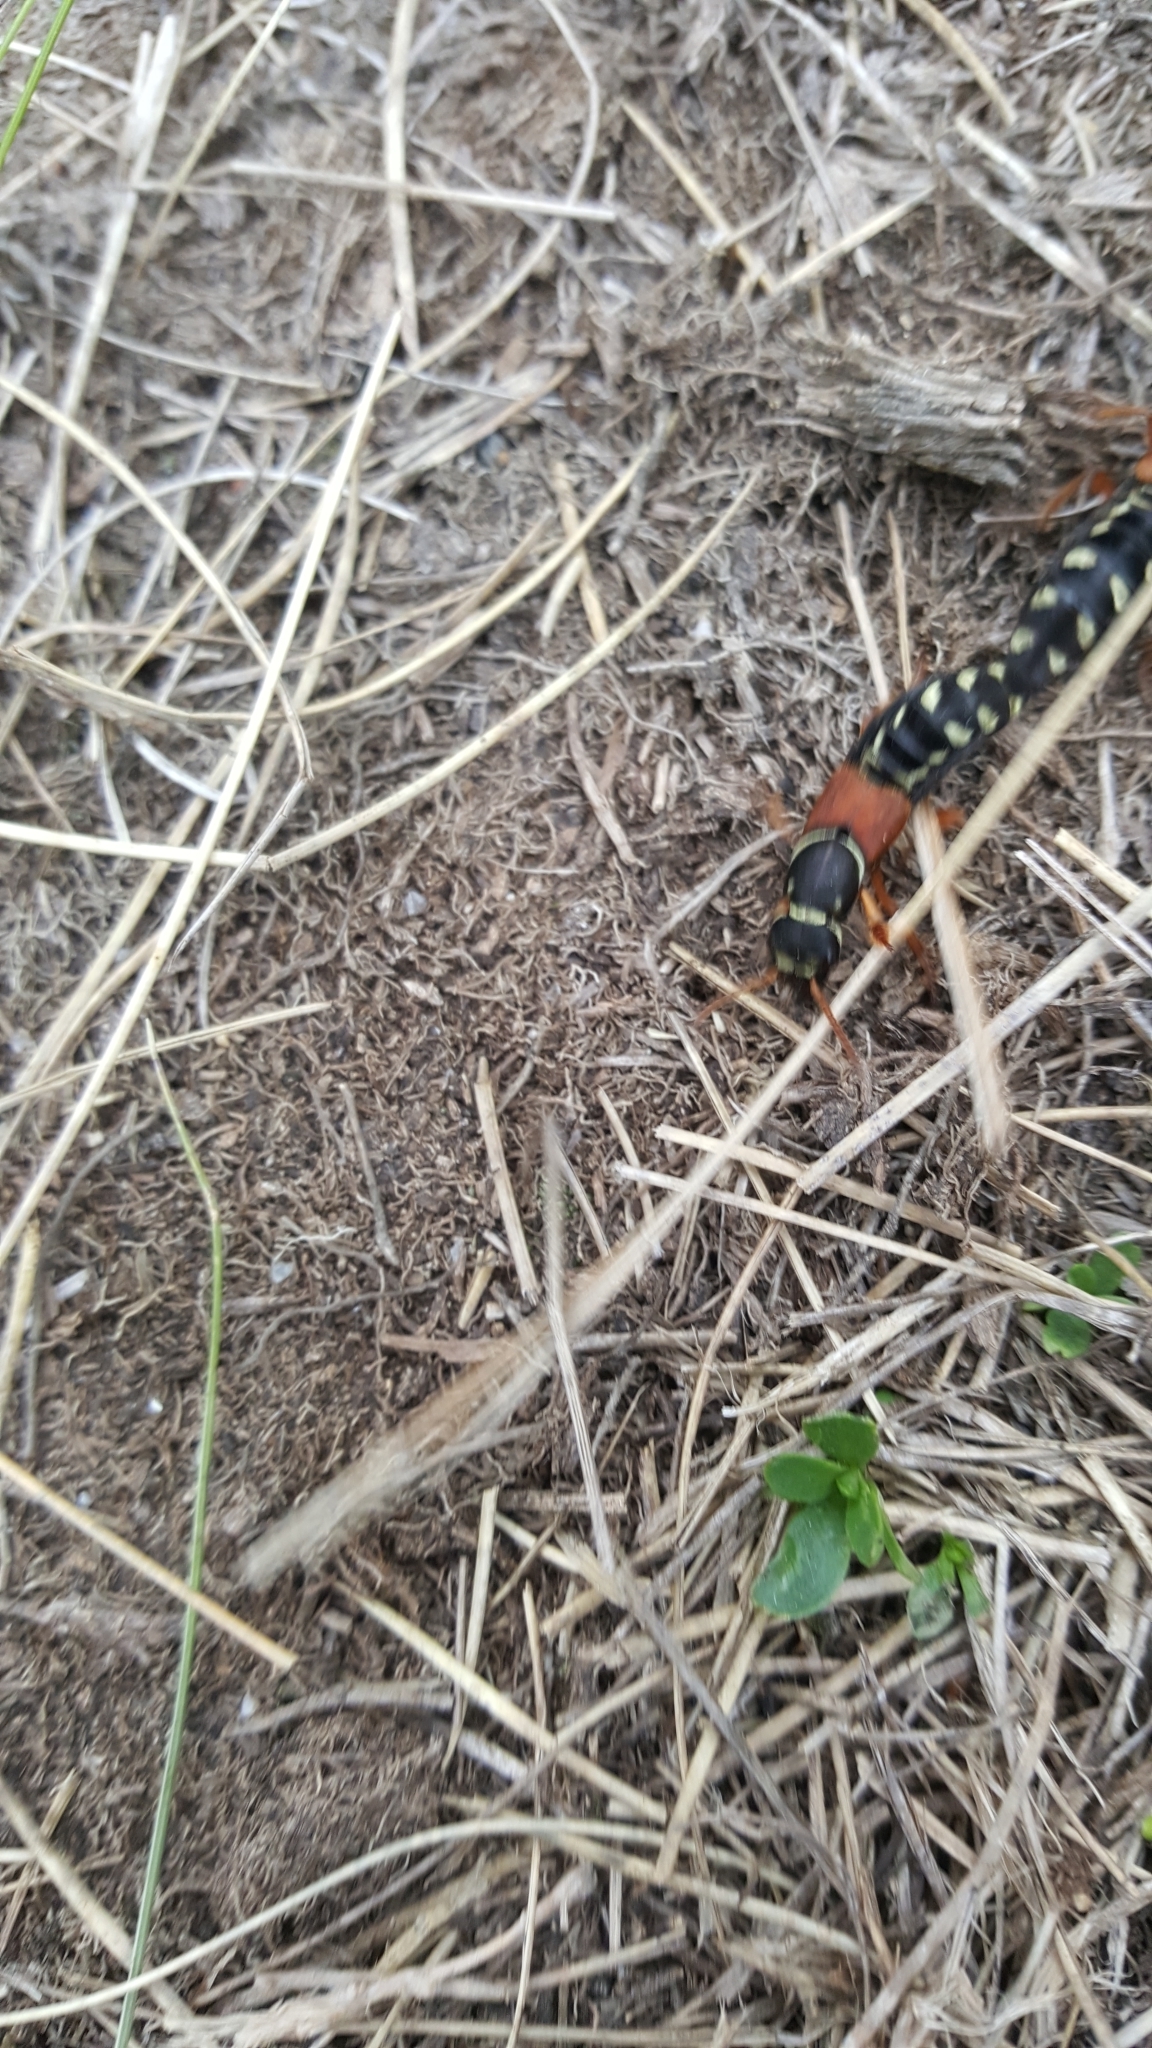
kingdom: Animalia
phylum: Arthropoda
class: Insecta
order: Coleoptera
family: Staphylinidae
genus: Staphylinus
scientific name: Staphylinus caesareus
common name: Staph beetle
